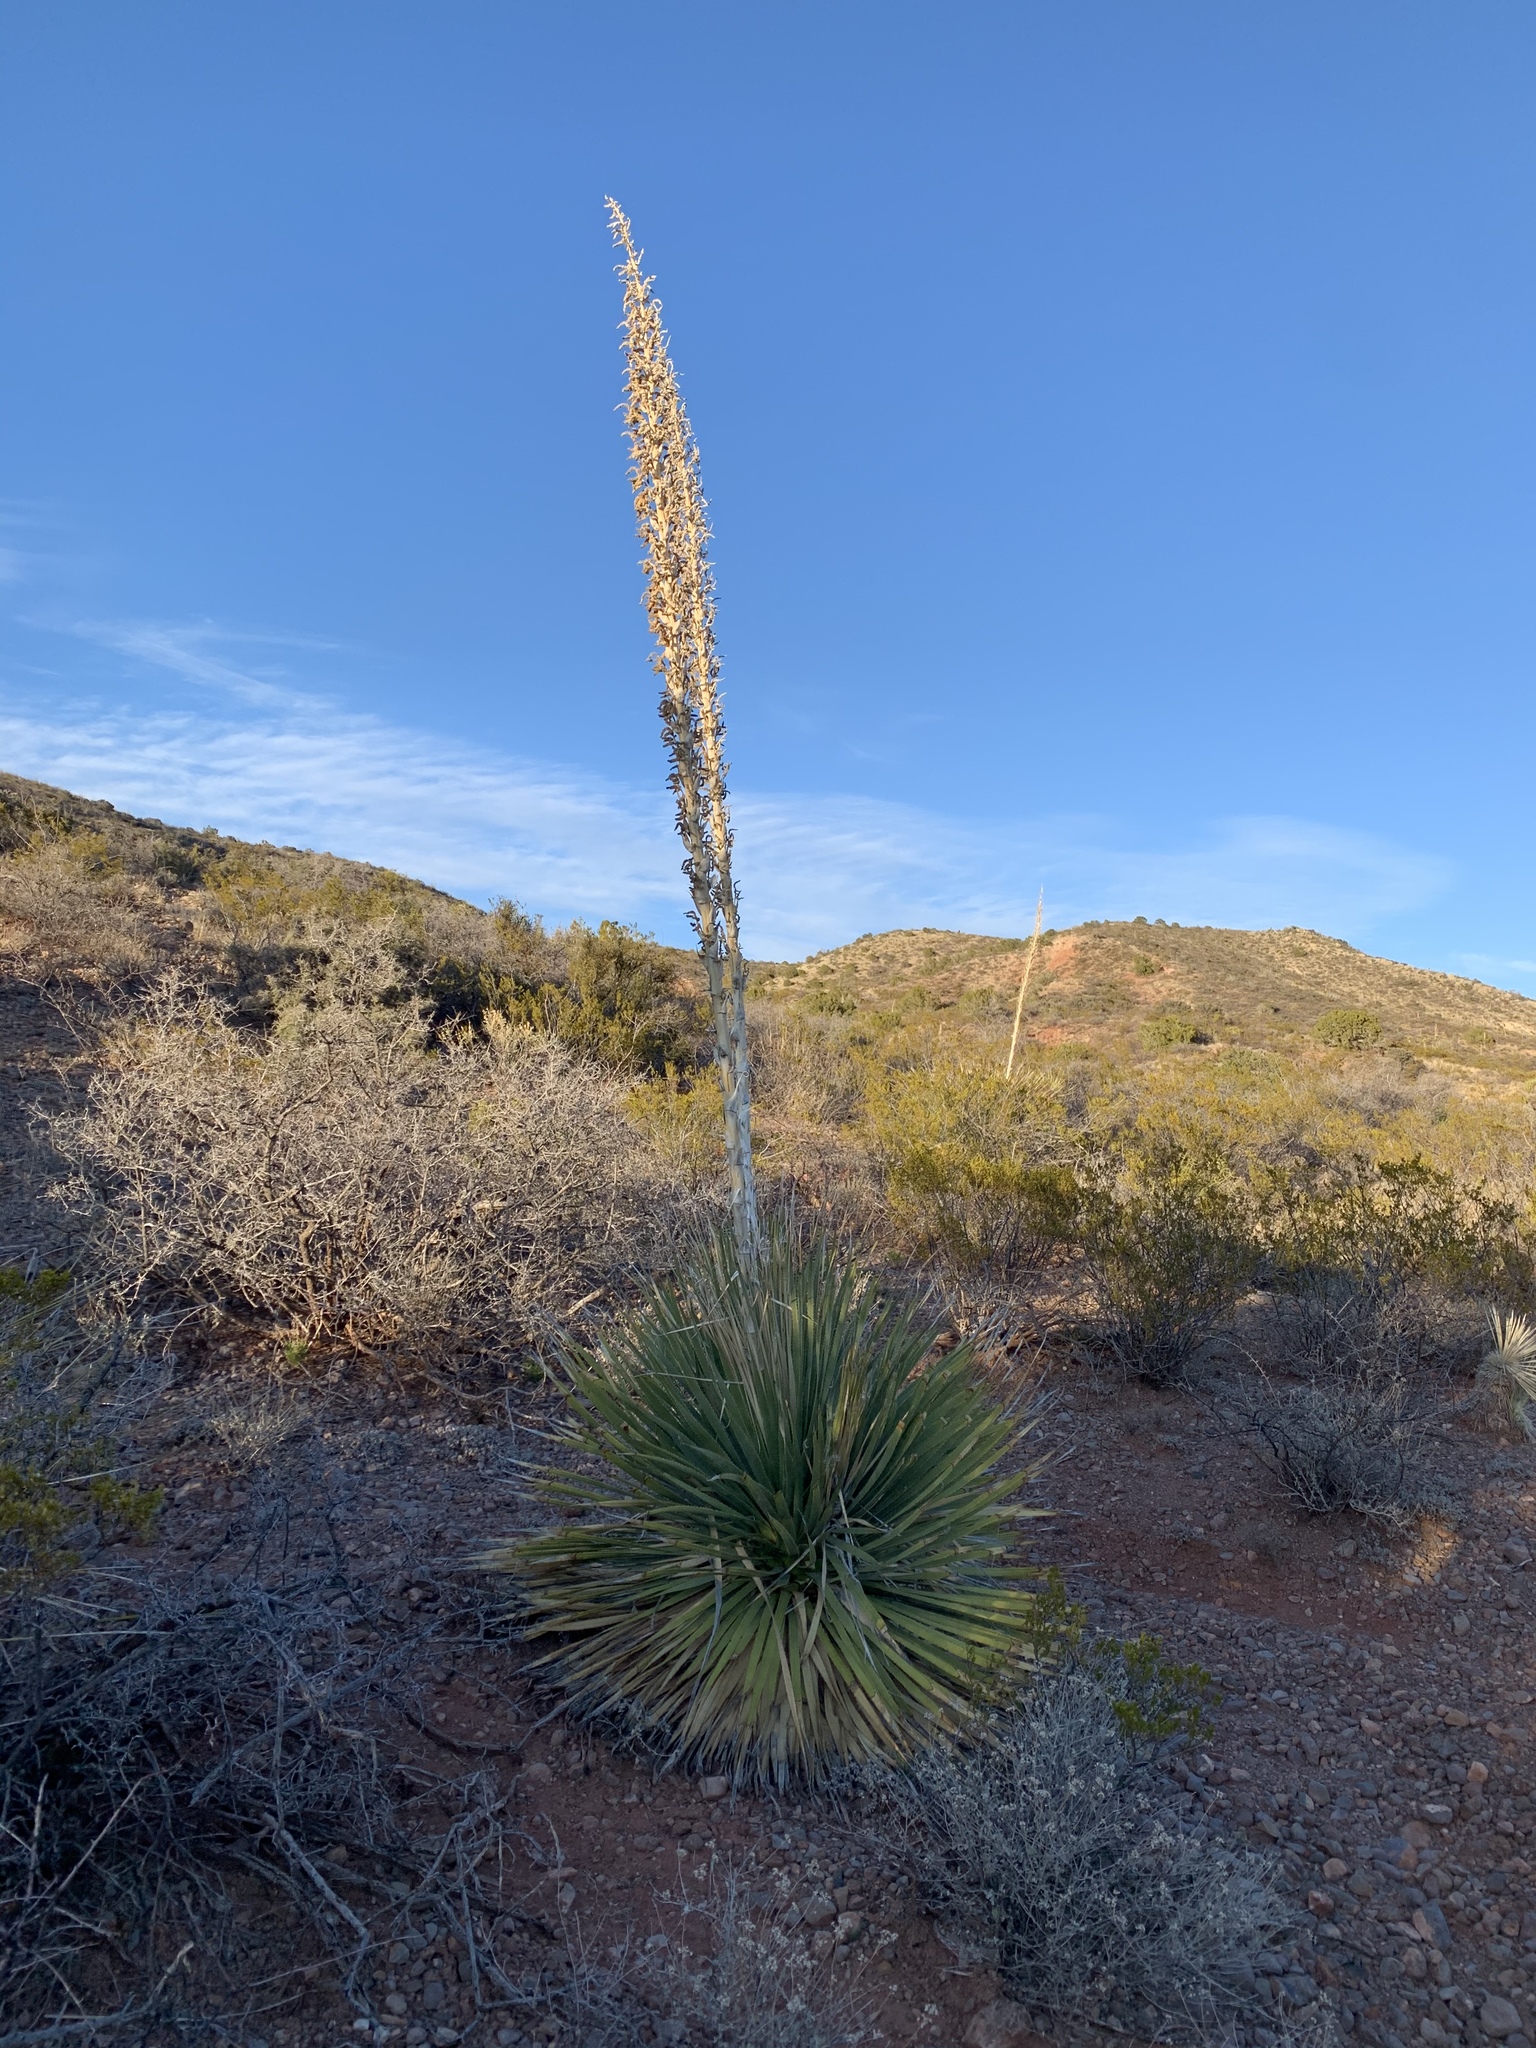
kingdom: Plantae
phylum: Tracheophyta
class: Liliopsida
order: Asparagales
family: Asparagaceae
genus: Dasylirion
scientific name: Dasylirion wheeleri
